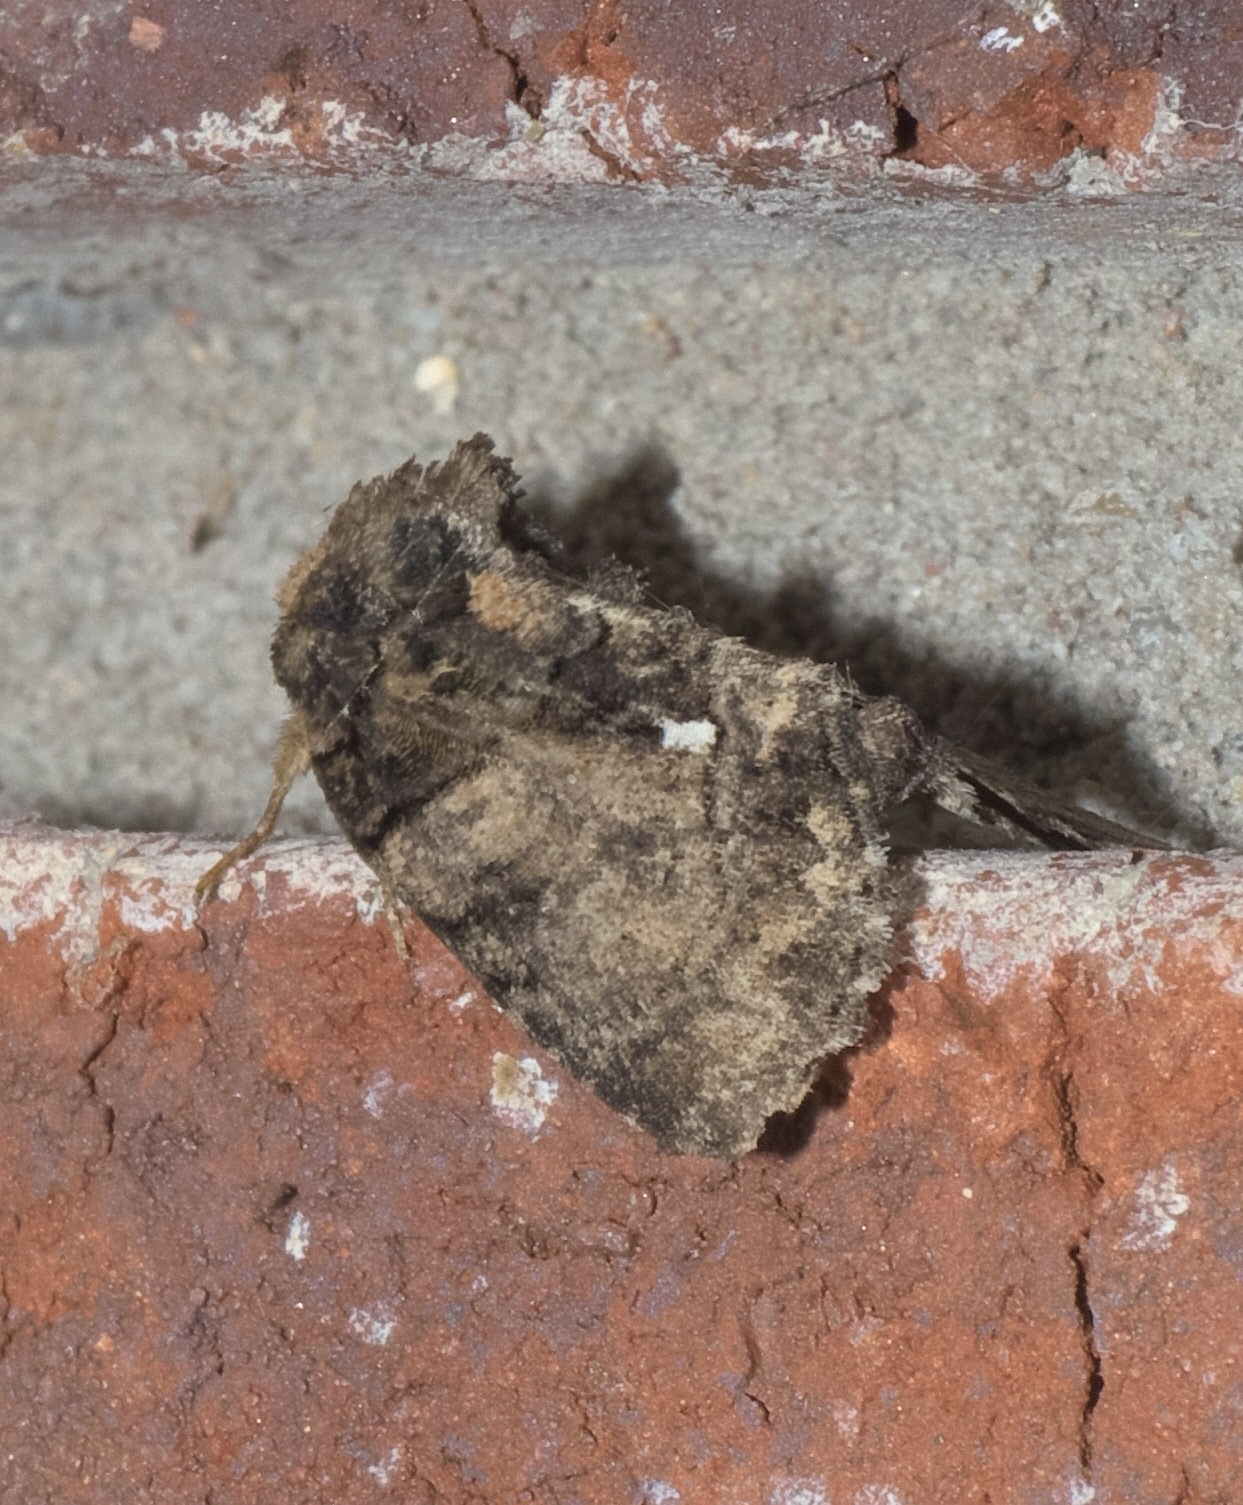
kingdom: Animalia
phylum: Arthropoda
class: Insecta
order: Lepidoptera
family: Noctuidae
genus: Chytonix
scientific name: Chytonix palliatricula
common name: Cloaked marvel
